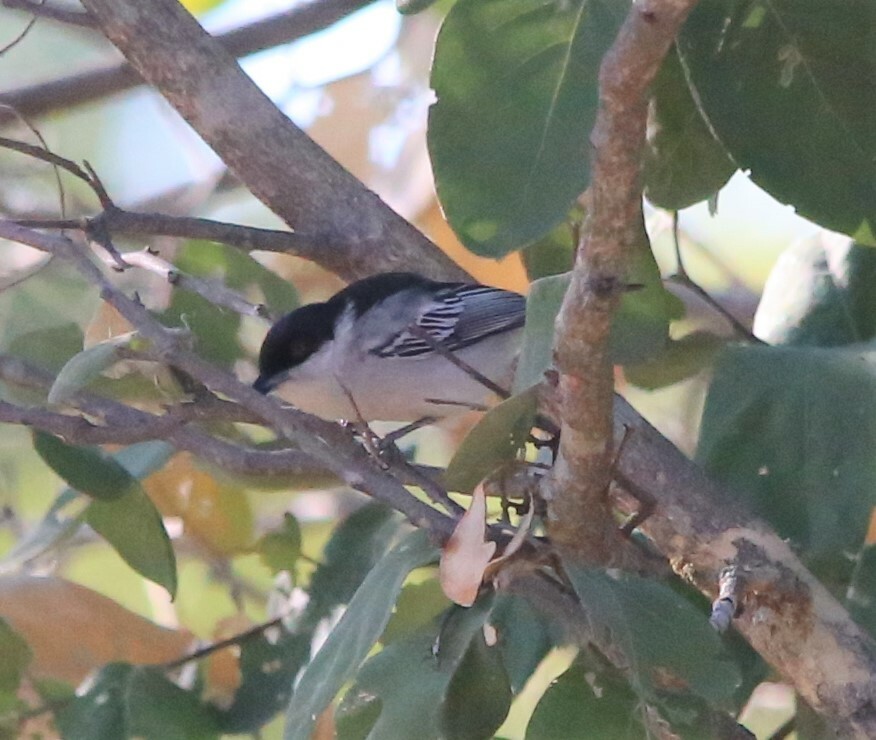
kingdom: Animalia
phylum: Chordata
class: Aves
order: Passeriformes
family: Malaconotidae
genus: Dryoscopus
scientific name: Dryoscopus cubla
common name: Black-backed puffback
